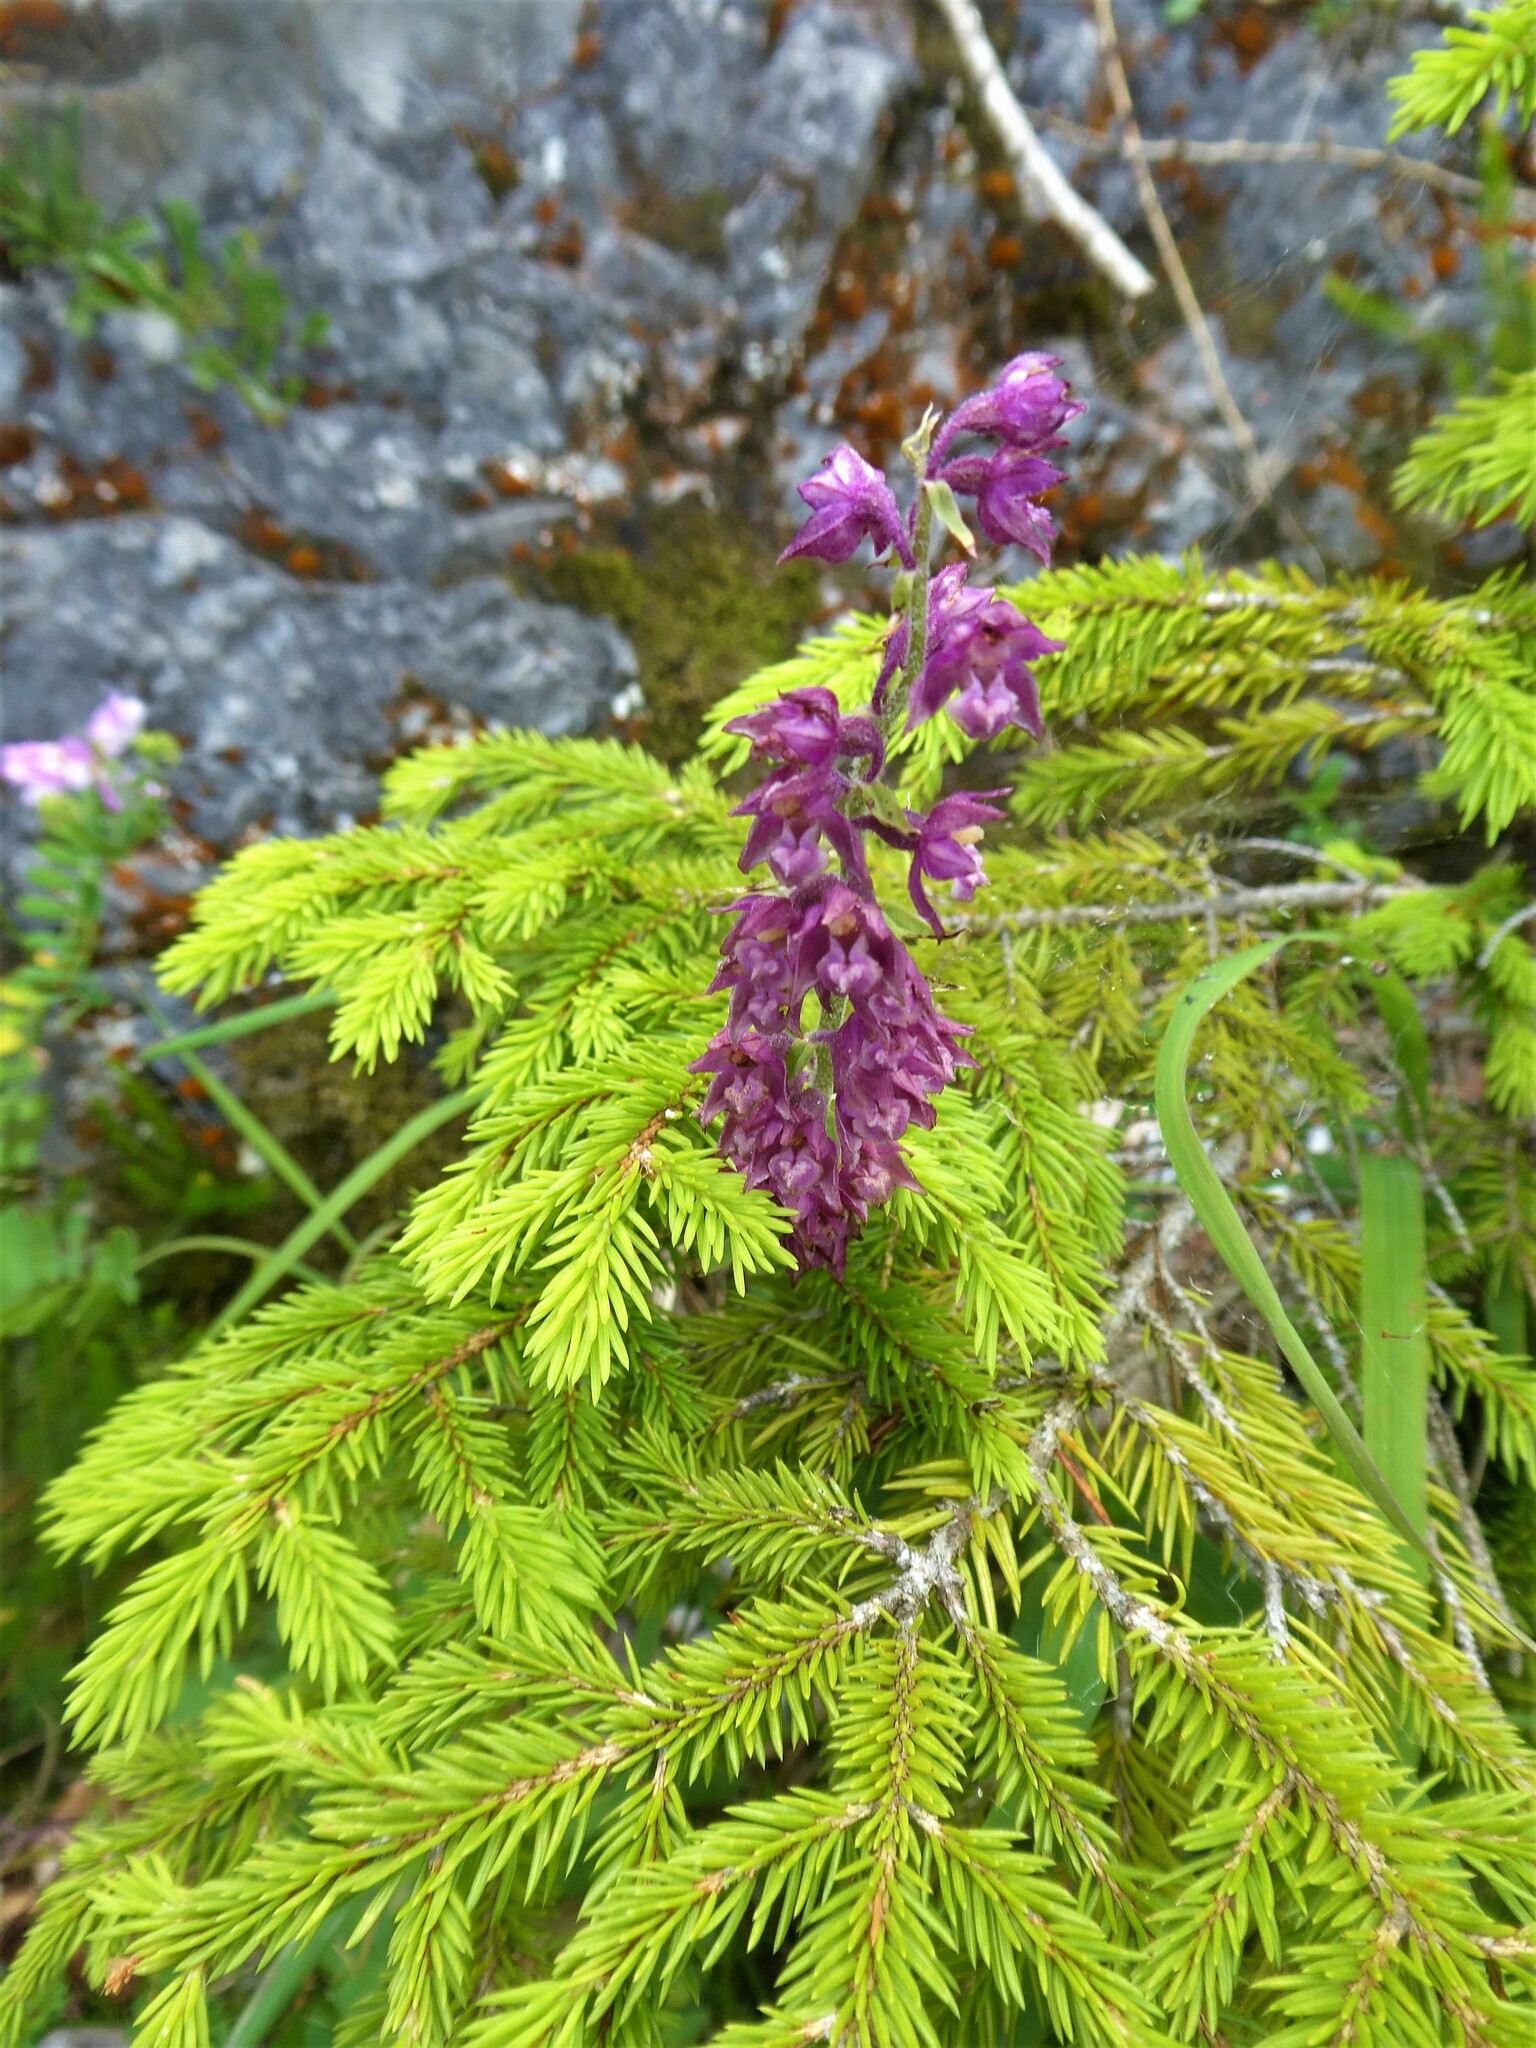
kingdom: Plantae
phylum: Tracheophyta
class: Liliopsida
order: Asparagales
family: Orchidaceae
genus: Epipactis
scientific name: Epipactis atrorubens
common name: Dark-red helleborine
